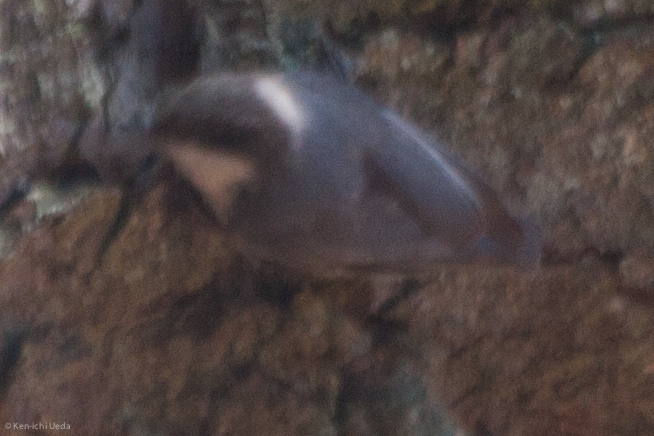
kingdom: Animalia
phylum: Chordata
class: Aves
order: Passeriformes
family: Sittidae
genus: Sitta
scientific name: Sitta pygmaea
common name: Pygmy nuthatch
